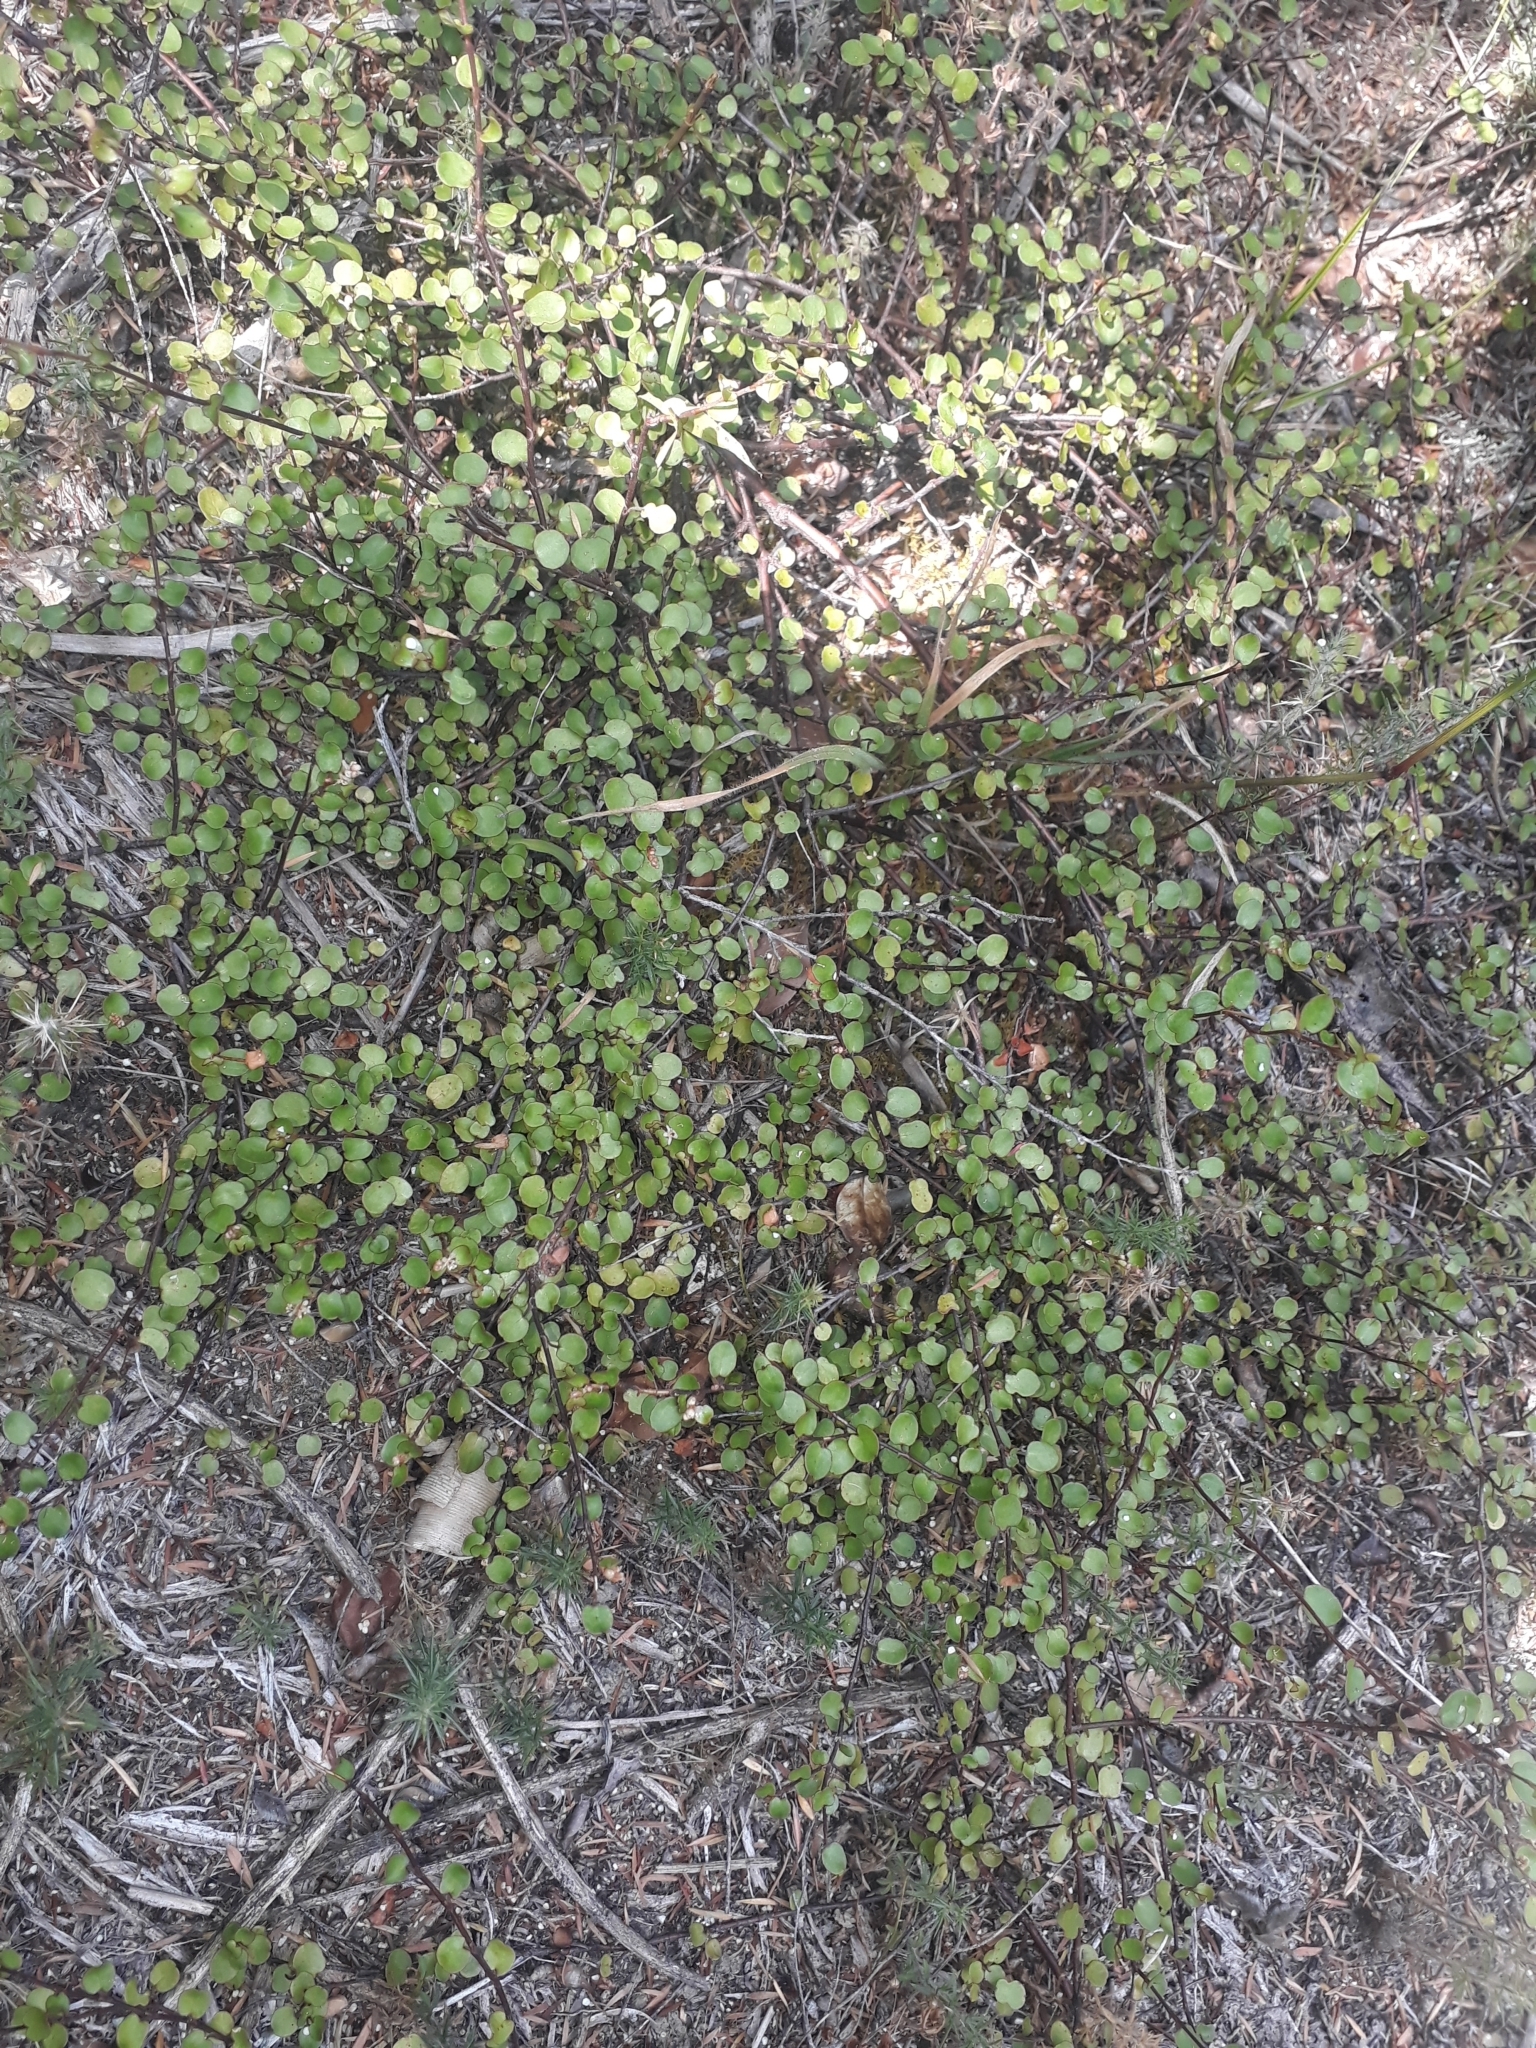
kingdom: Plantae
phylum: Tracheophyta
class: Magnoliopsida
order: Caryophyllales
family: Polygonaceae
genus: Muehlenbeckia
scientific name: Muehlenbeckia complexa
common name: Wireplant
